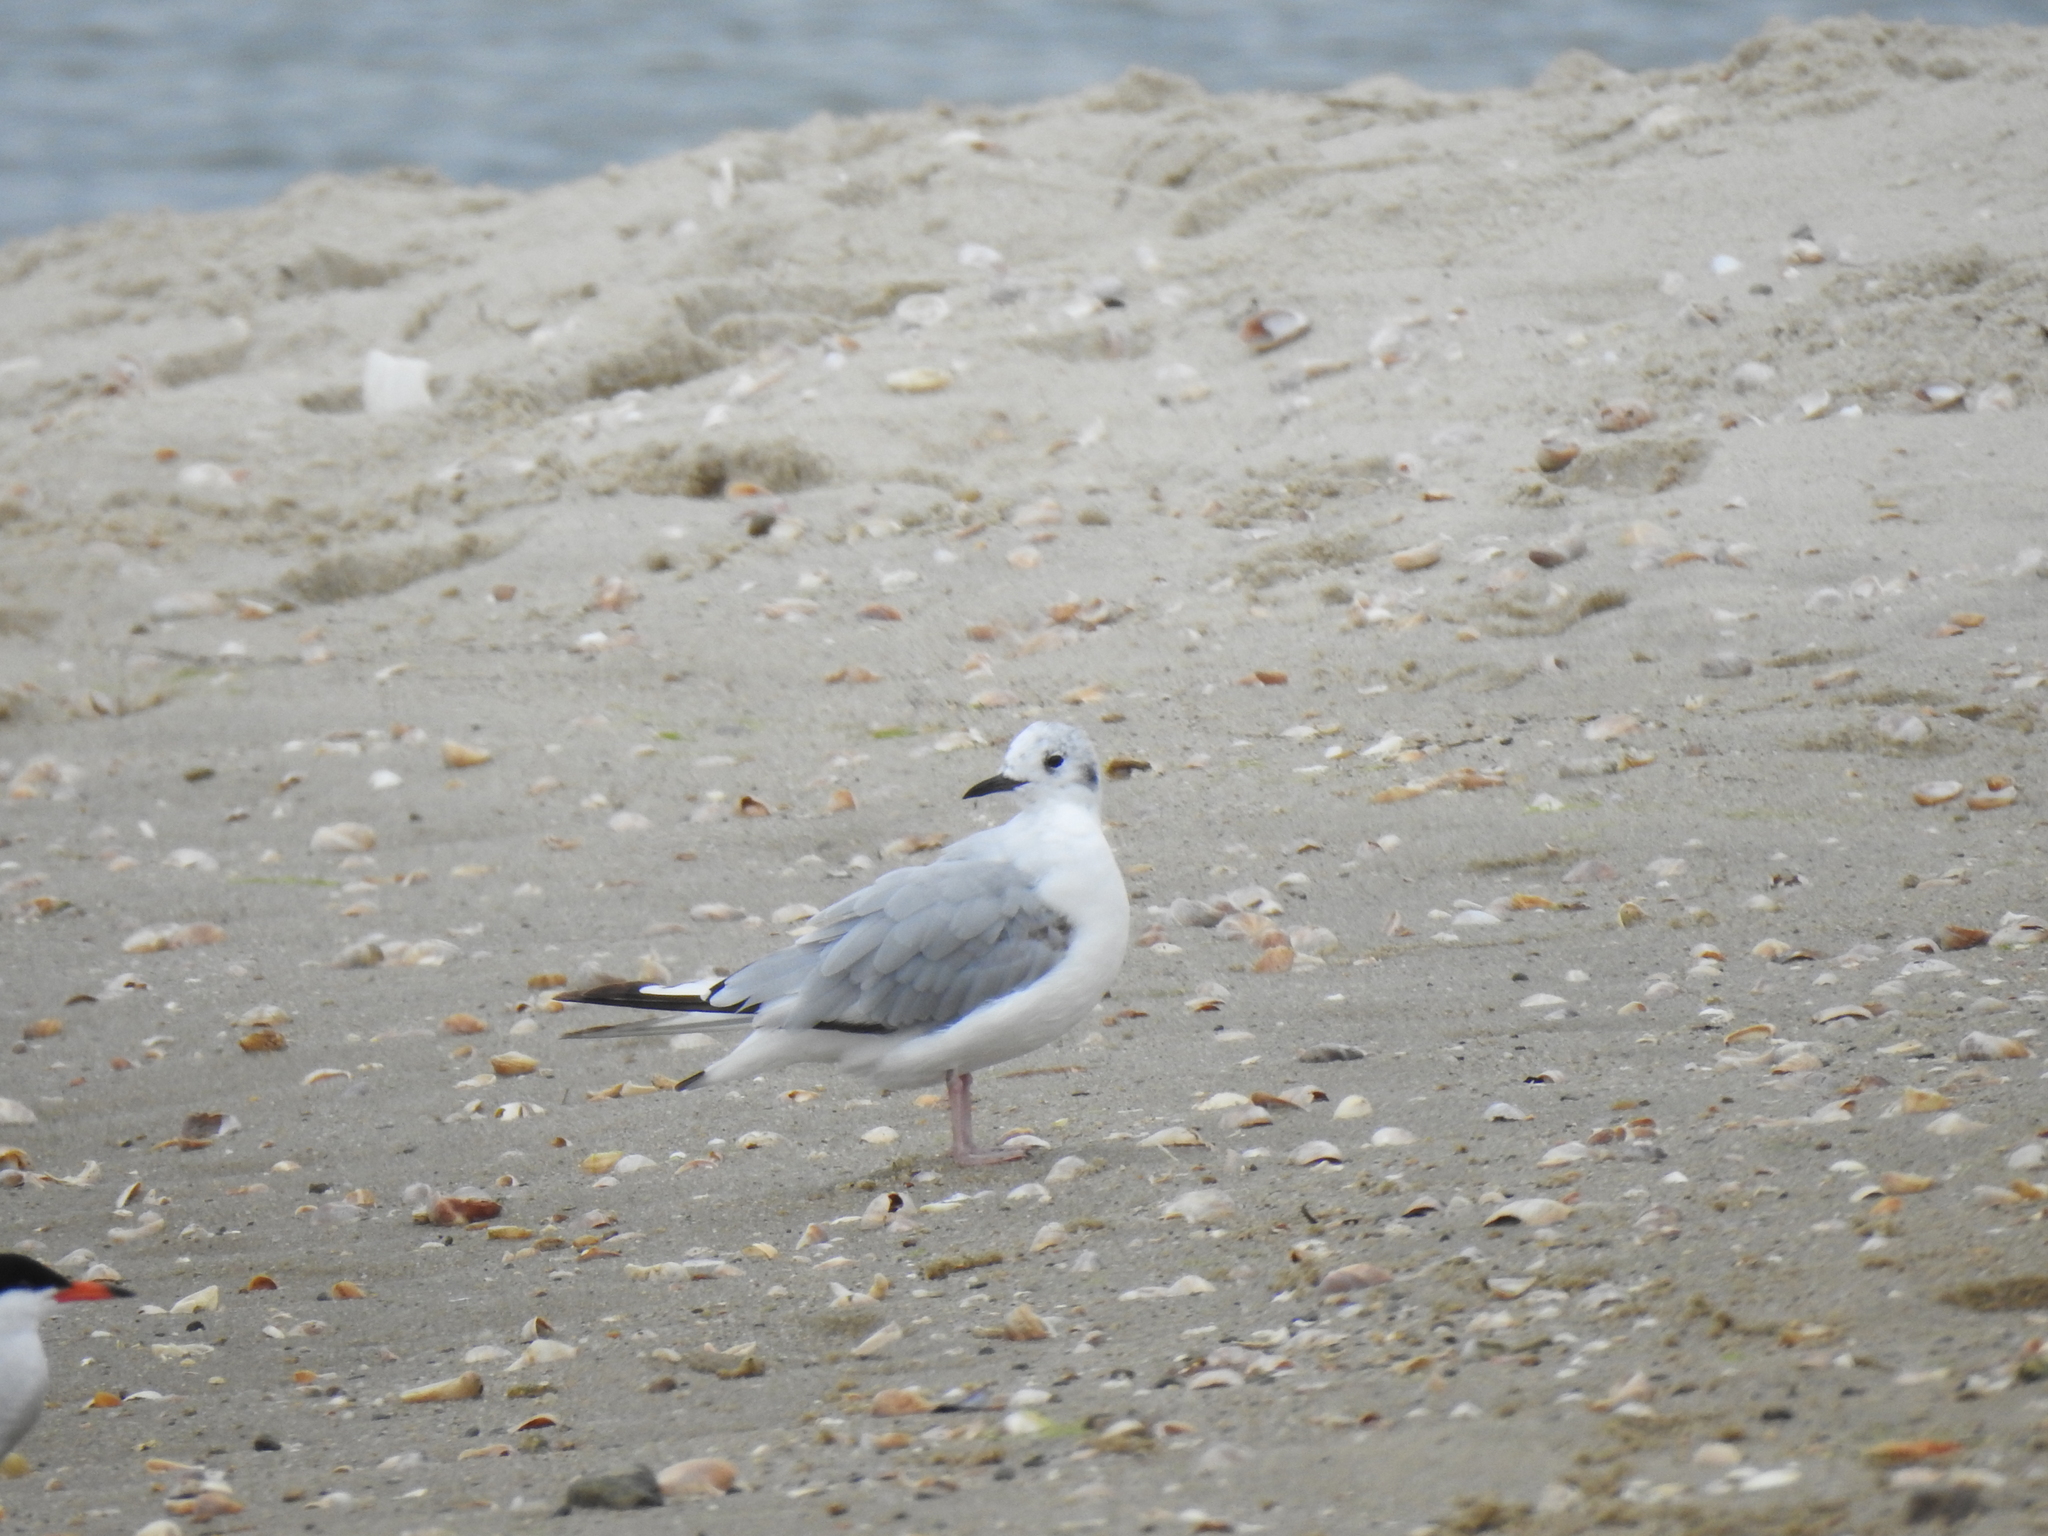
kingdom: Animalia
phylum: Chordata
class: Aves
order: Charadriiformes
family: Laridae
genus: Chroicocephalus
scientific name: Chroicocephalus philadelphia
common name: Bonaparte's gull
